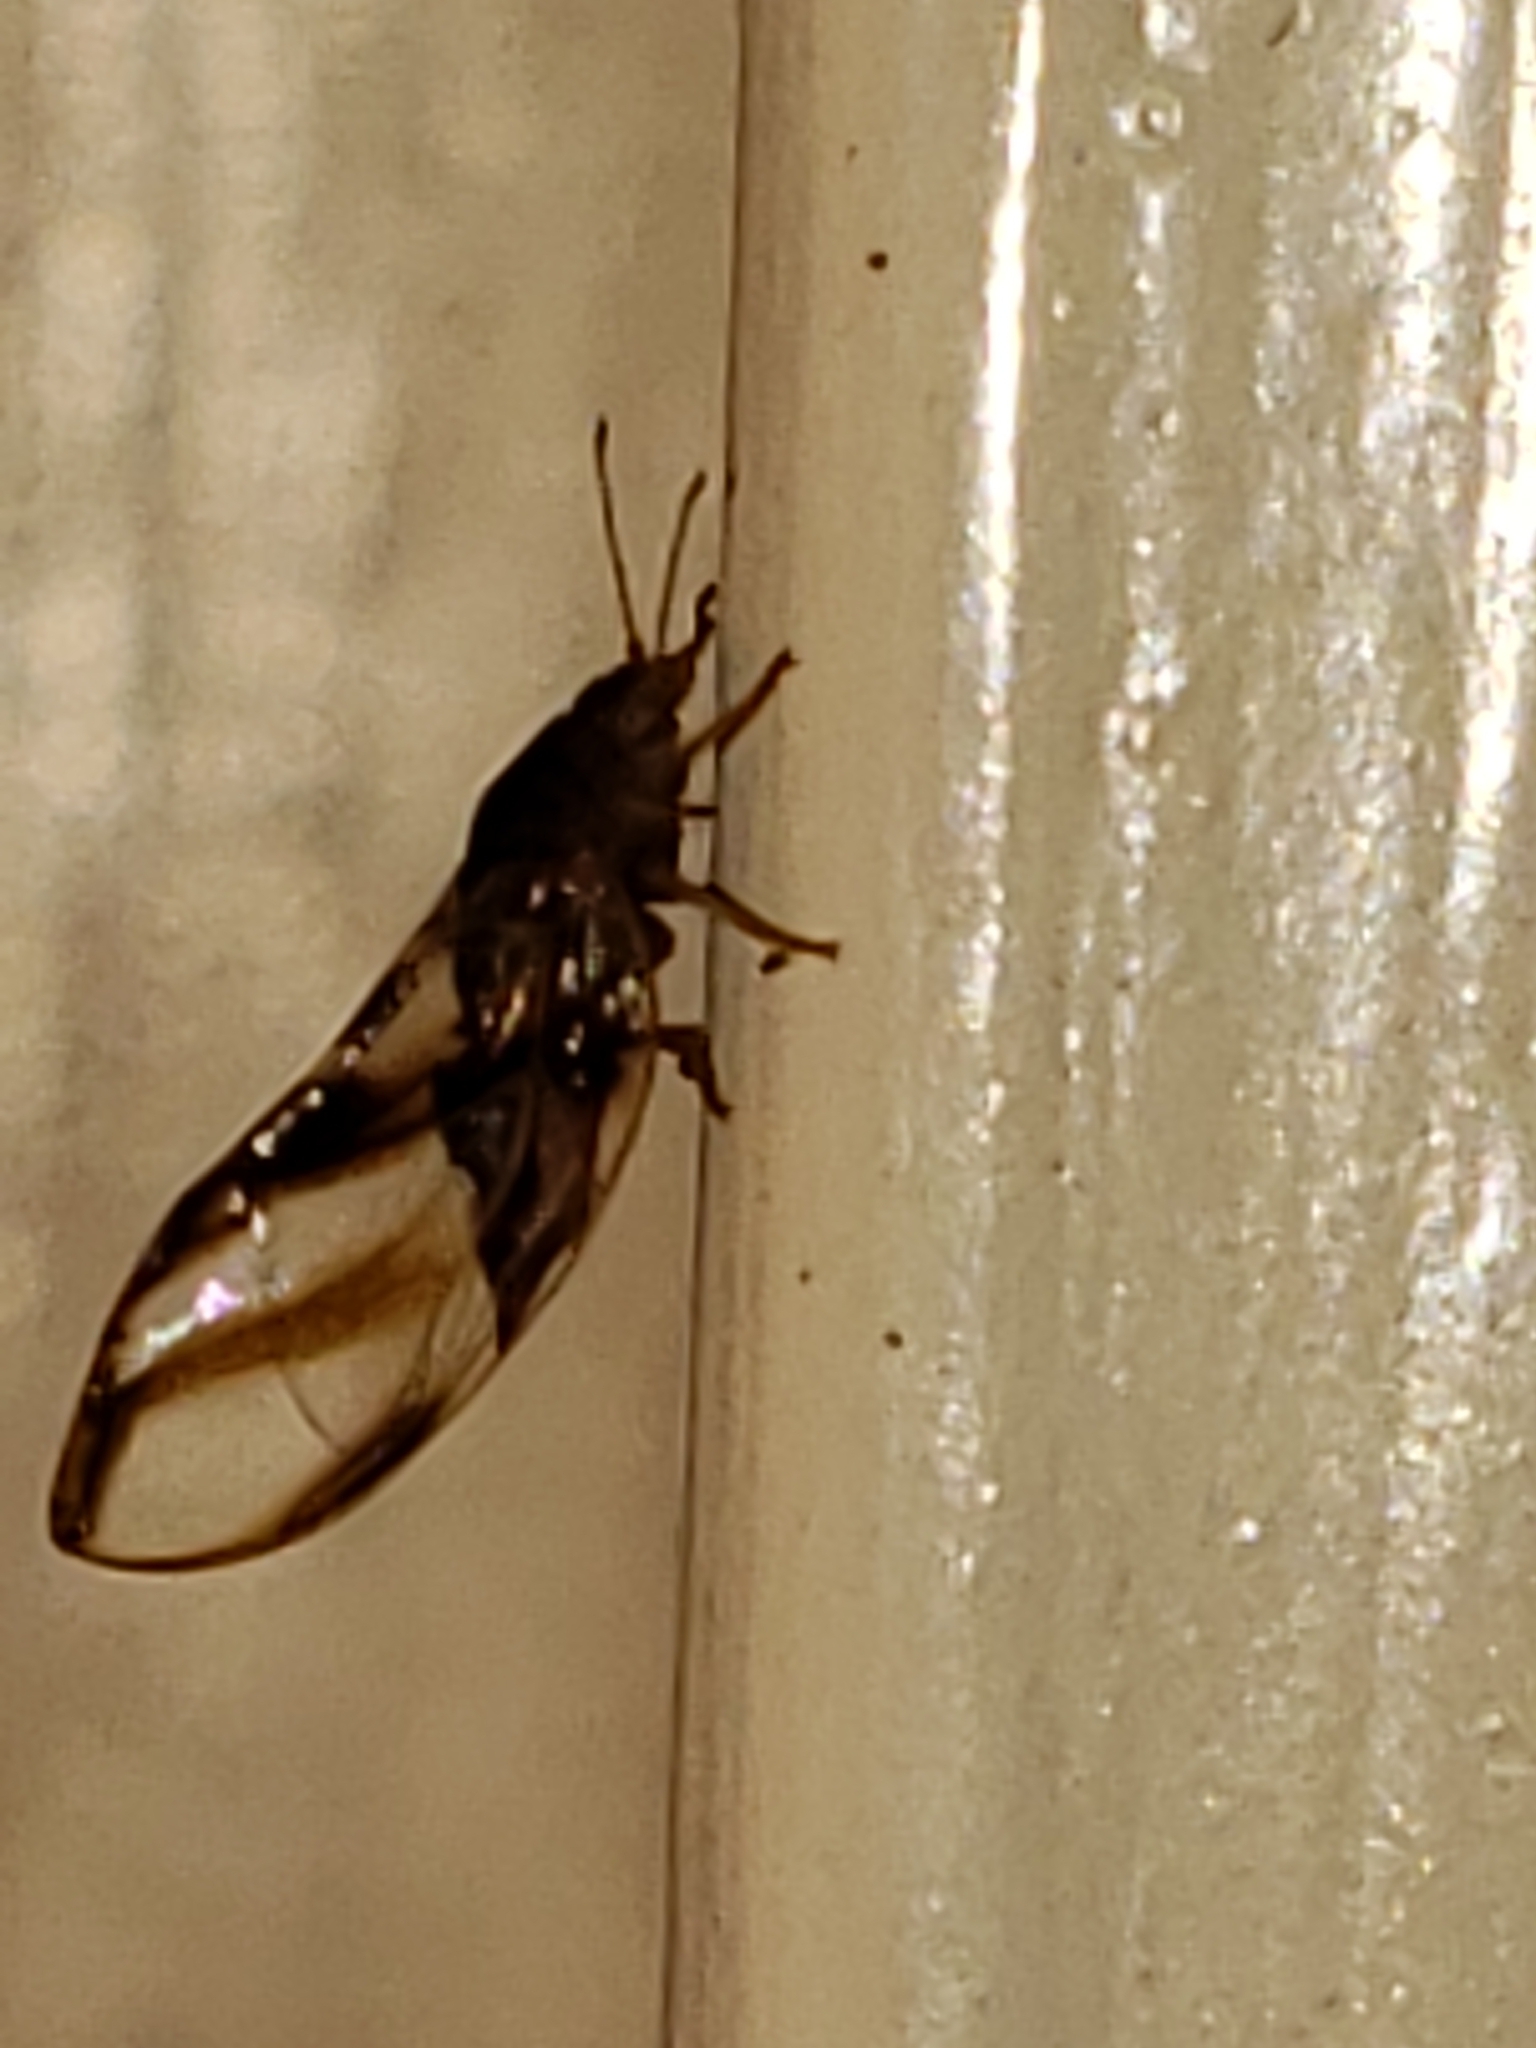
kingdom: Animalia
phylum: Arthropoda
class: Insecta
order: Hemiptera
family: Triozidae
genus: Phylloplecta
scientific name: Phylloplecta tripunctata
